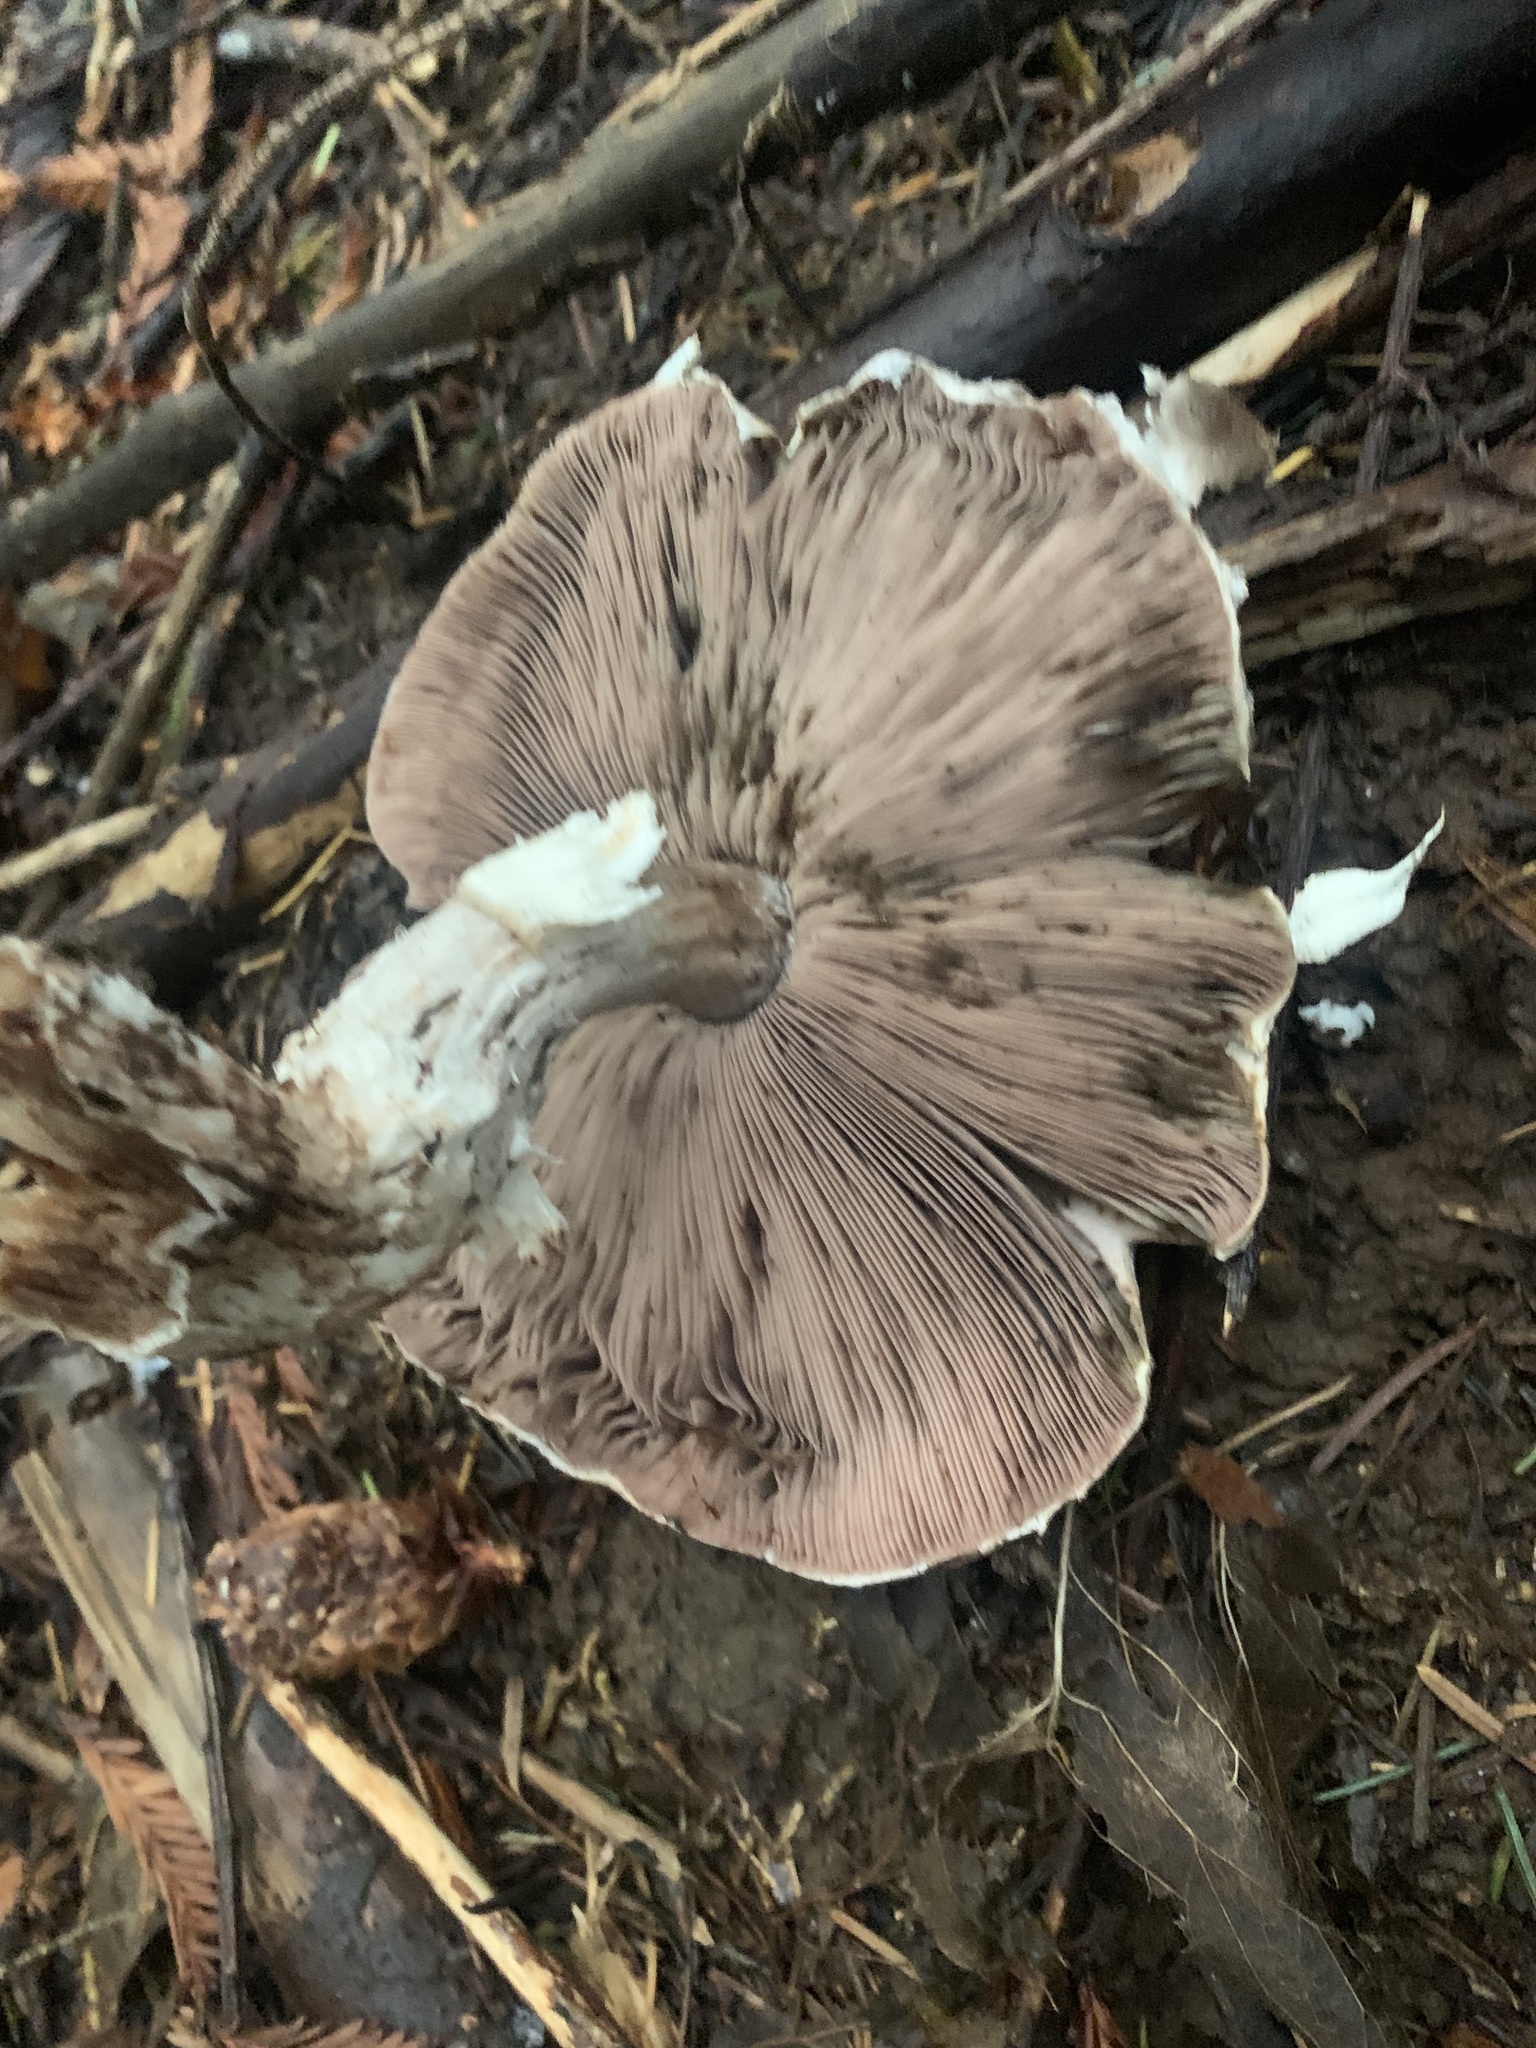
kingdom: Fungi
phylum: Basidiomycota
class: Agaricomycetes
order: Agaricales
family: Agaricaceae
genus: Agaricus
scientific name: Agaricus subrutilescens
